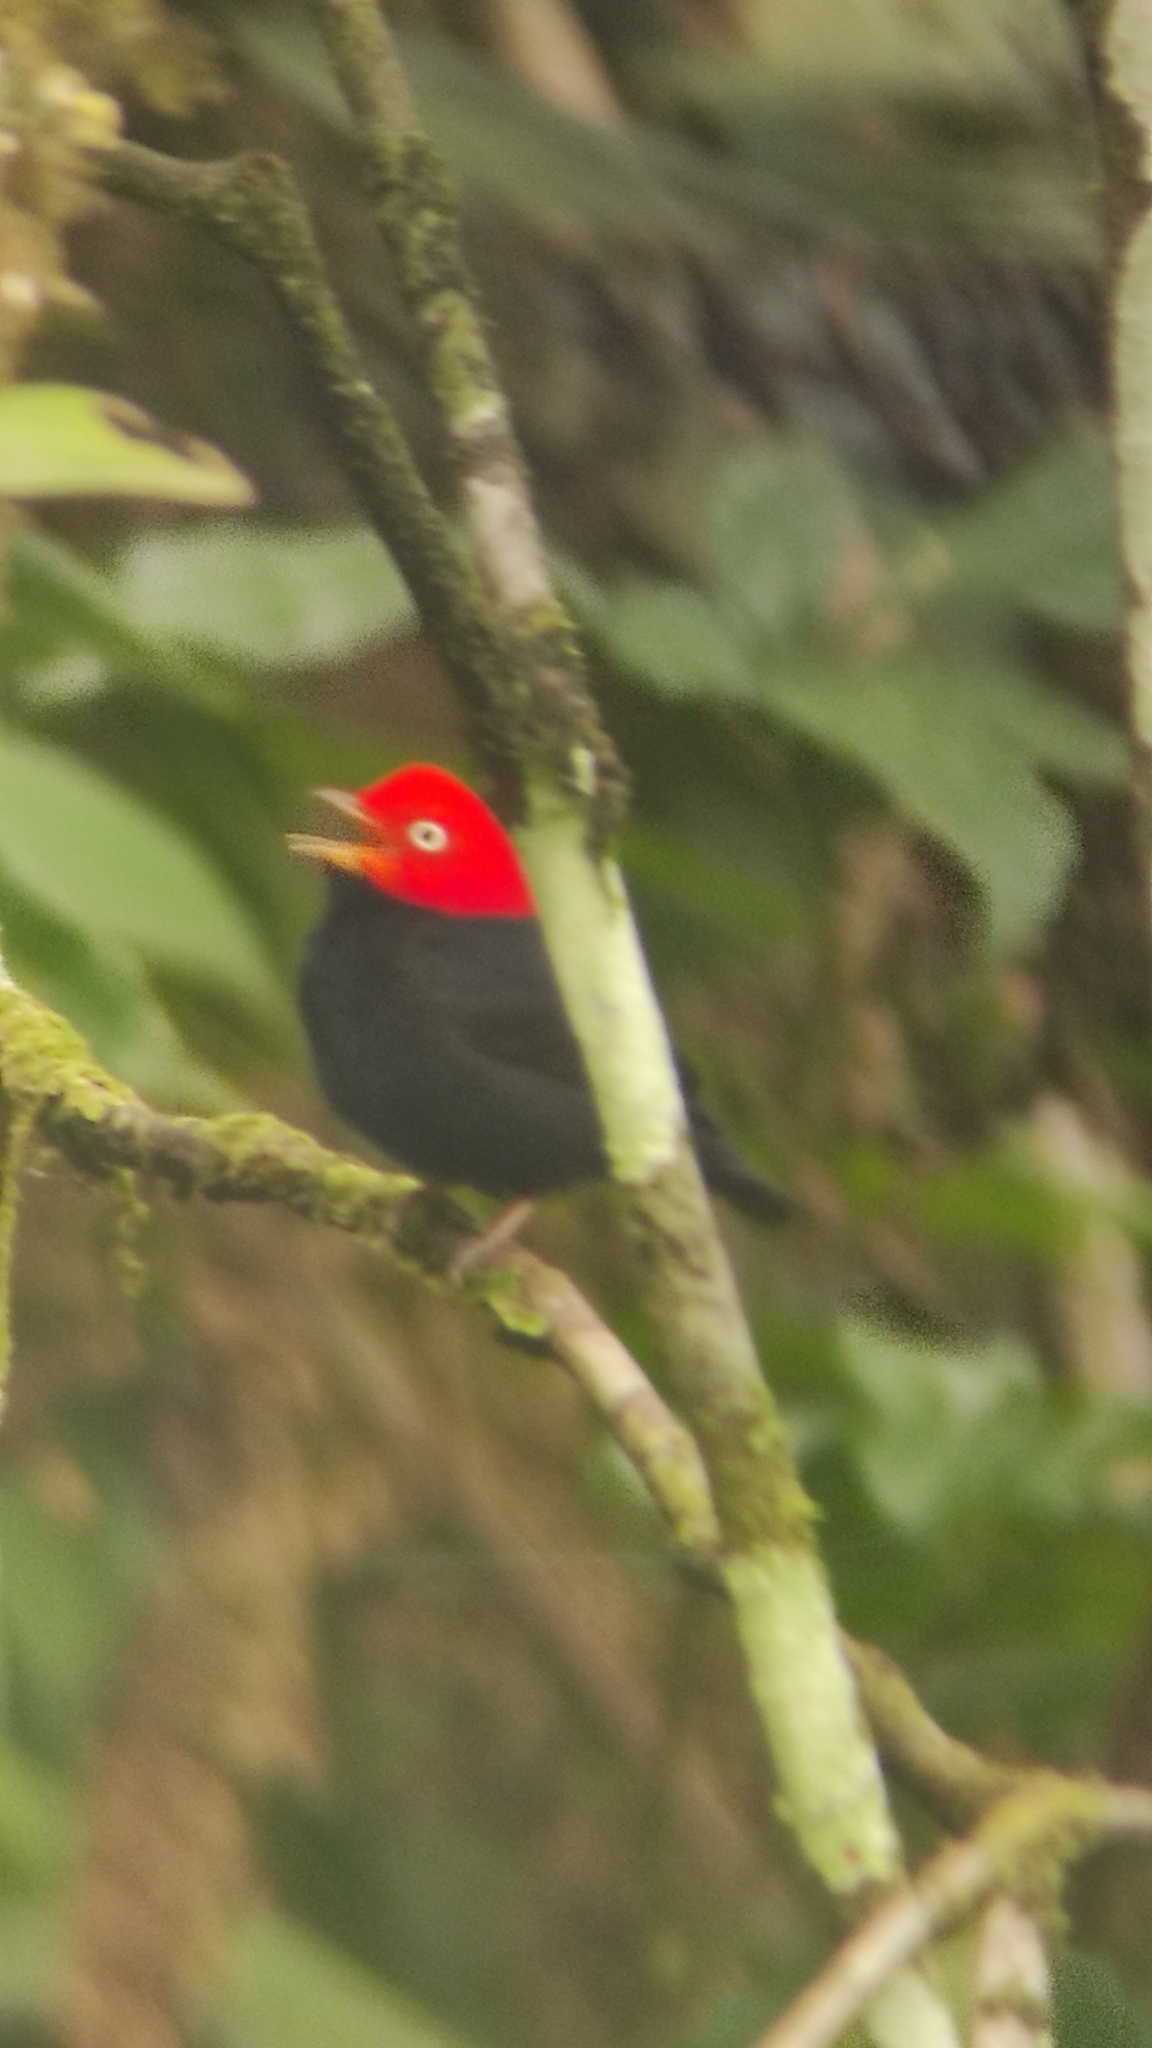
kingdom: Animalia
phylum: Chordata
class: Aves
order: Passeriformes
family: Pipridae
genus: Pipra
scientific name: Pipra mentalis
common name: Red-capped manakin
